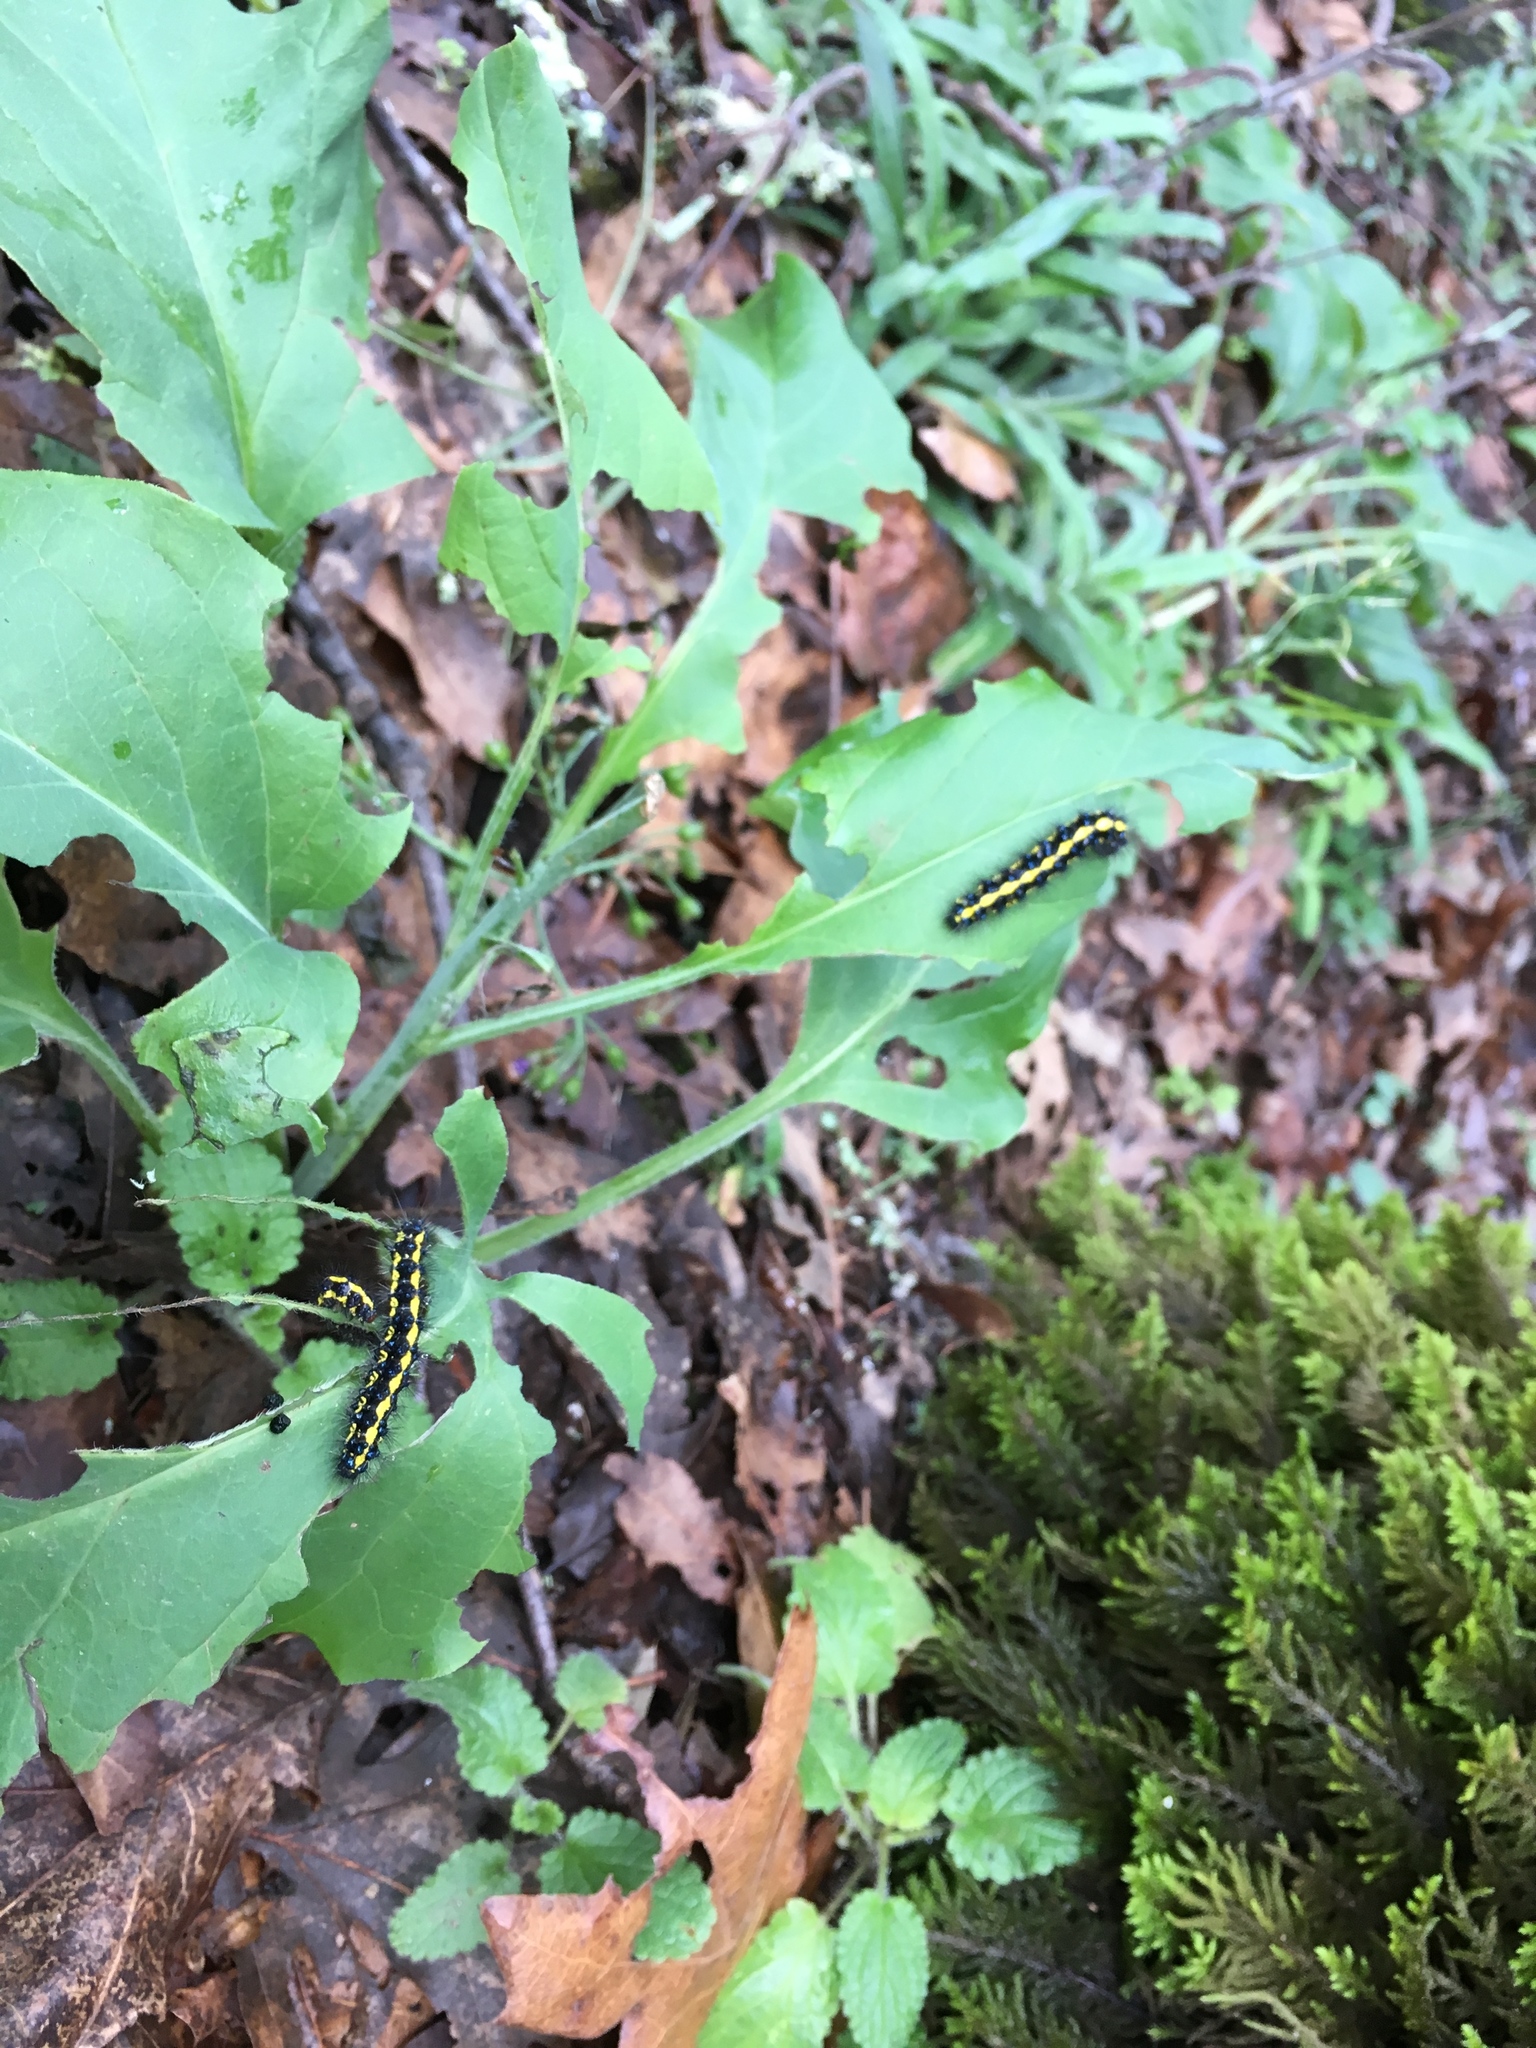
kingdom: Animalia
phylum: Arthropoda
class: Insecta
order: Lepidoptera
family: Erebidae
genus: Gnophaela
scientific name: Gnophaela latipennis
